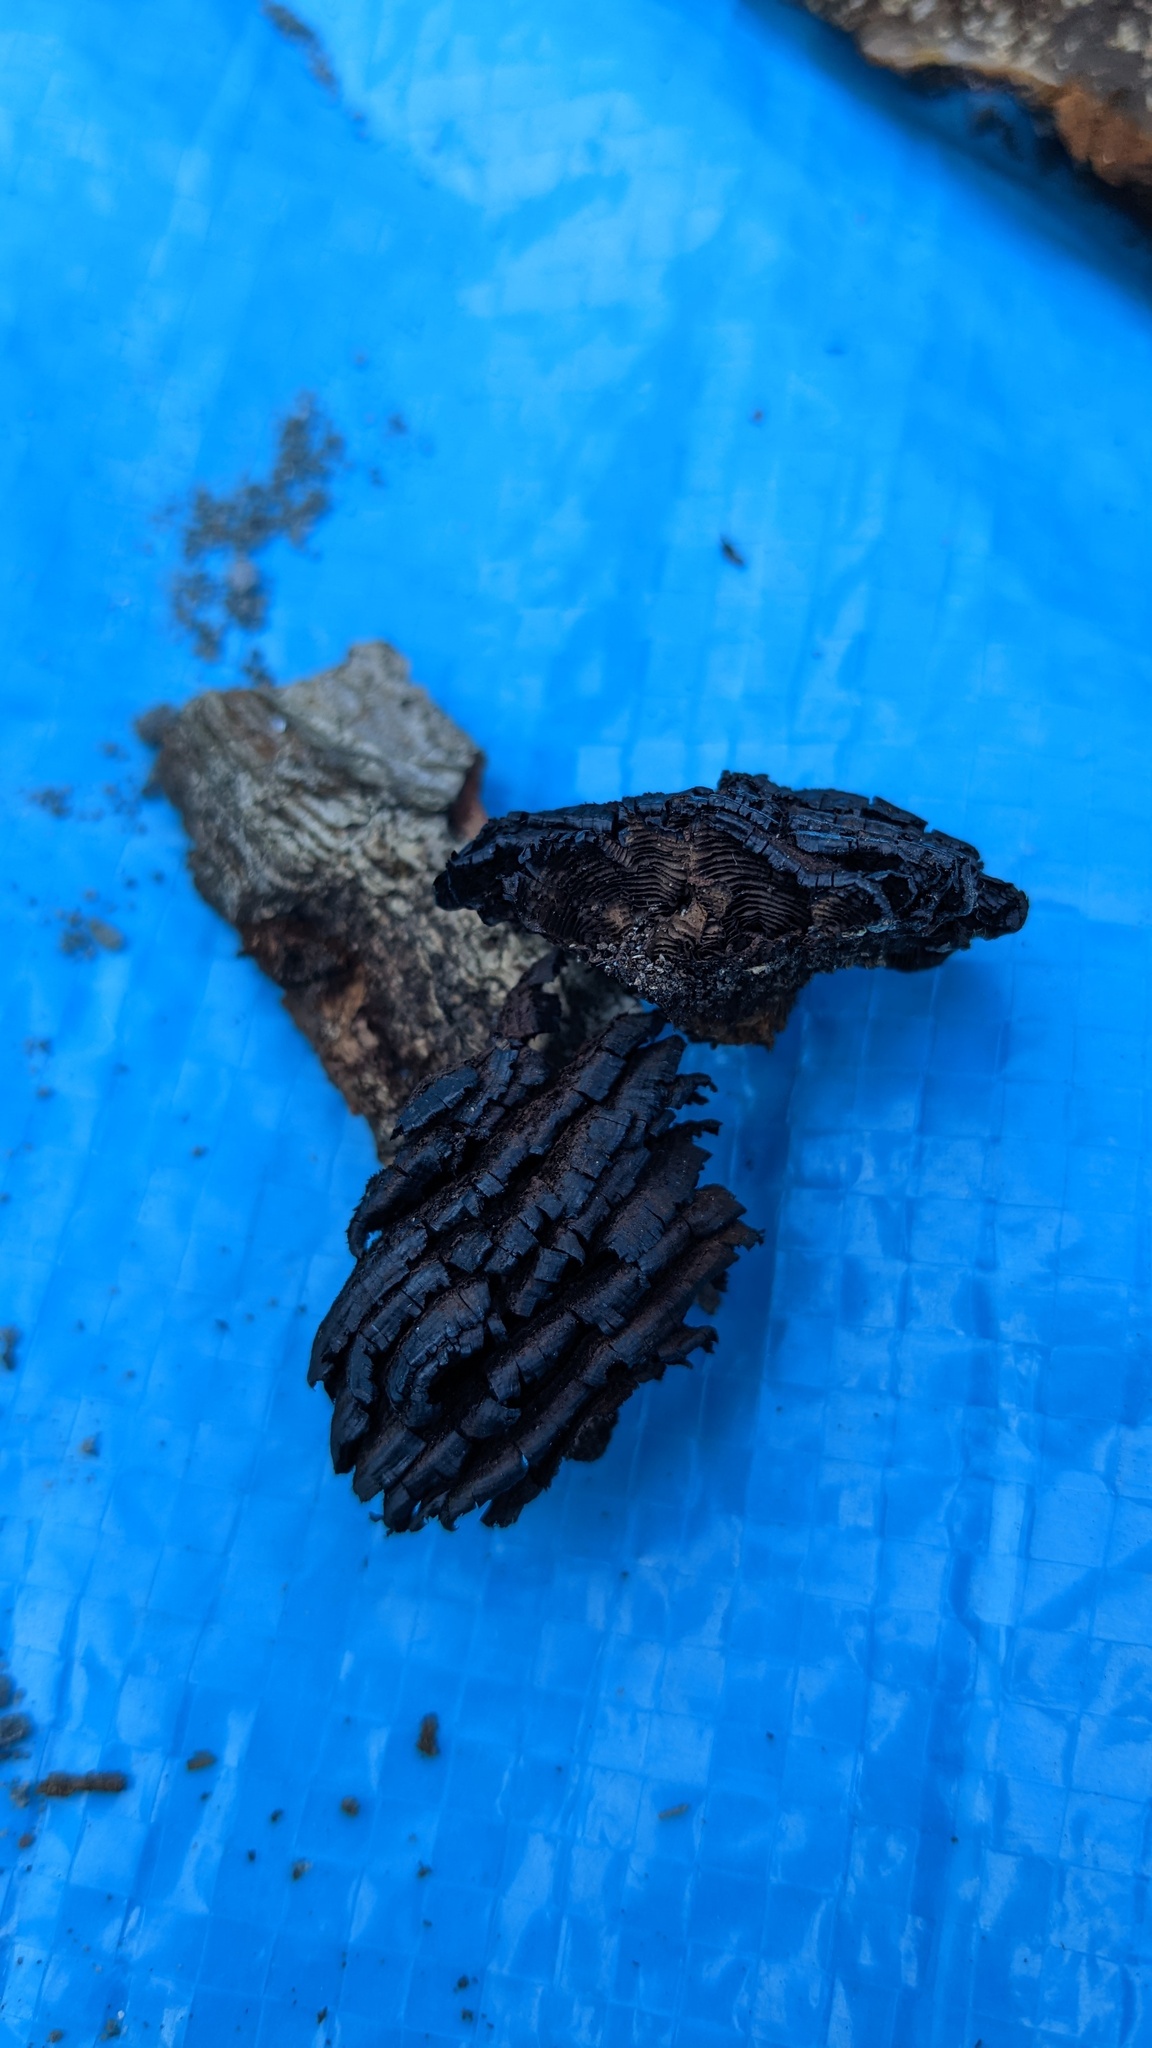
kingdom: Fungi
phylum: Basidiomycota
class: Agaricomycetes
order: Hymenochaetales
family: Hymenochaetaceae
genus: Hymenochaete
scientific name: Hymenochaete cyclolamellata
